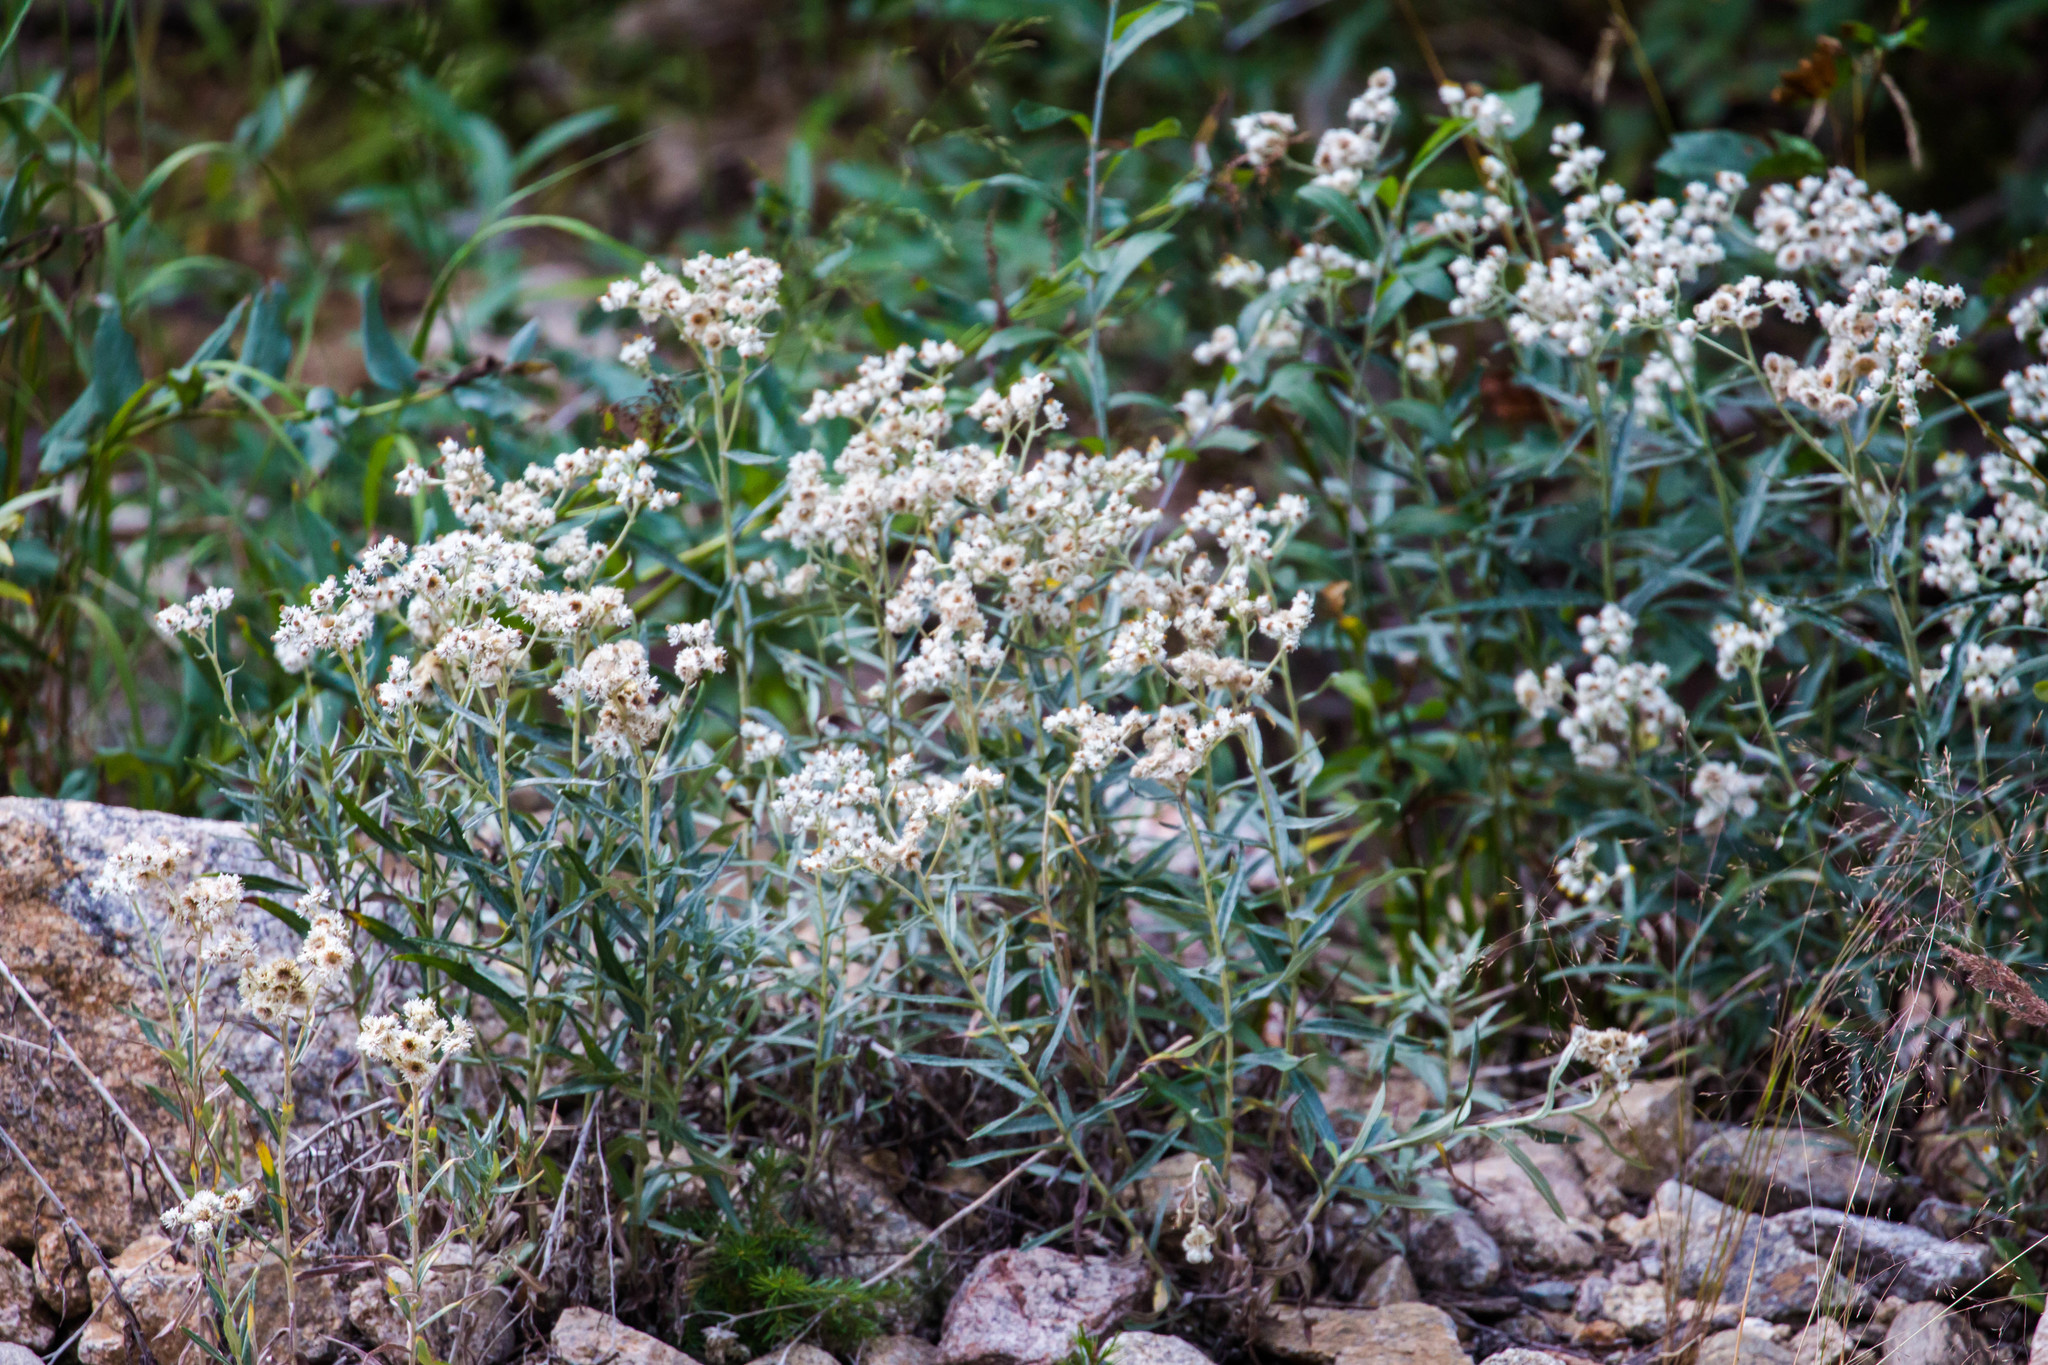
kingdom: Plantae
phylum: Tracheophyta
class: Magnoliopsida
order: Asterales
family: Asteraceae
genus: Anaphalis
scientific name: Anaphalis margaritacea
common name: Pearly everlasting
